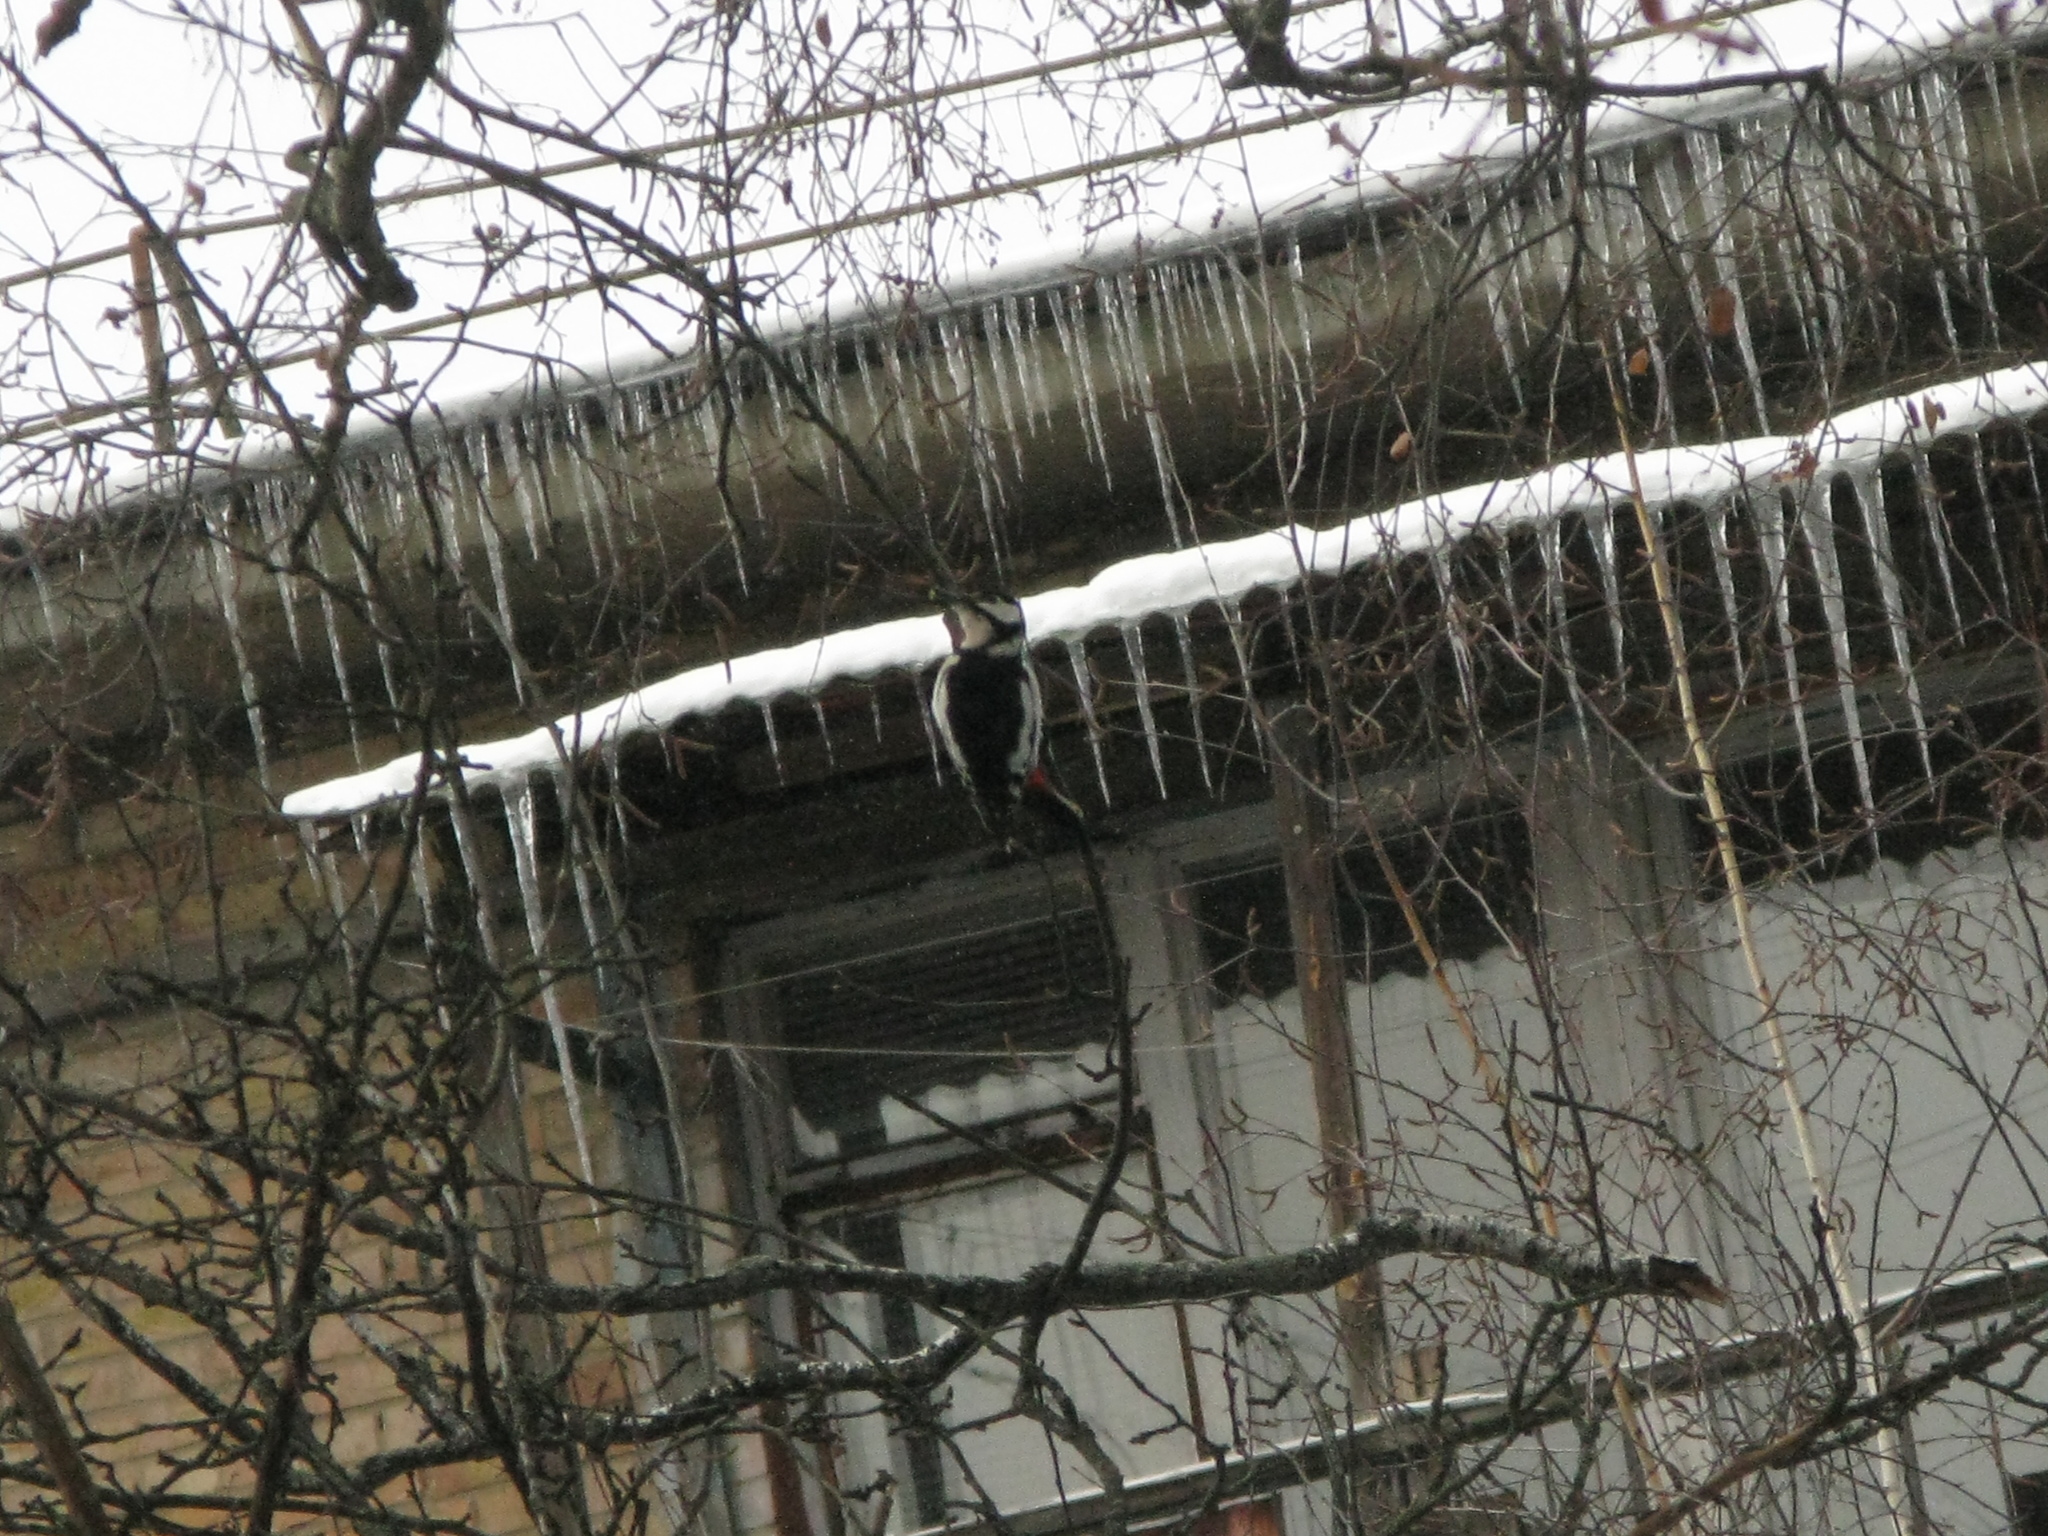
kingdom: Animalia
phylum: Chordata
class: Aves
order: Piciformes
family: Picidae
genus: Dendrocopos
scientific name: Dendrocopos major
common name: Great spotted woodpecker
